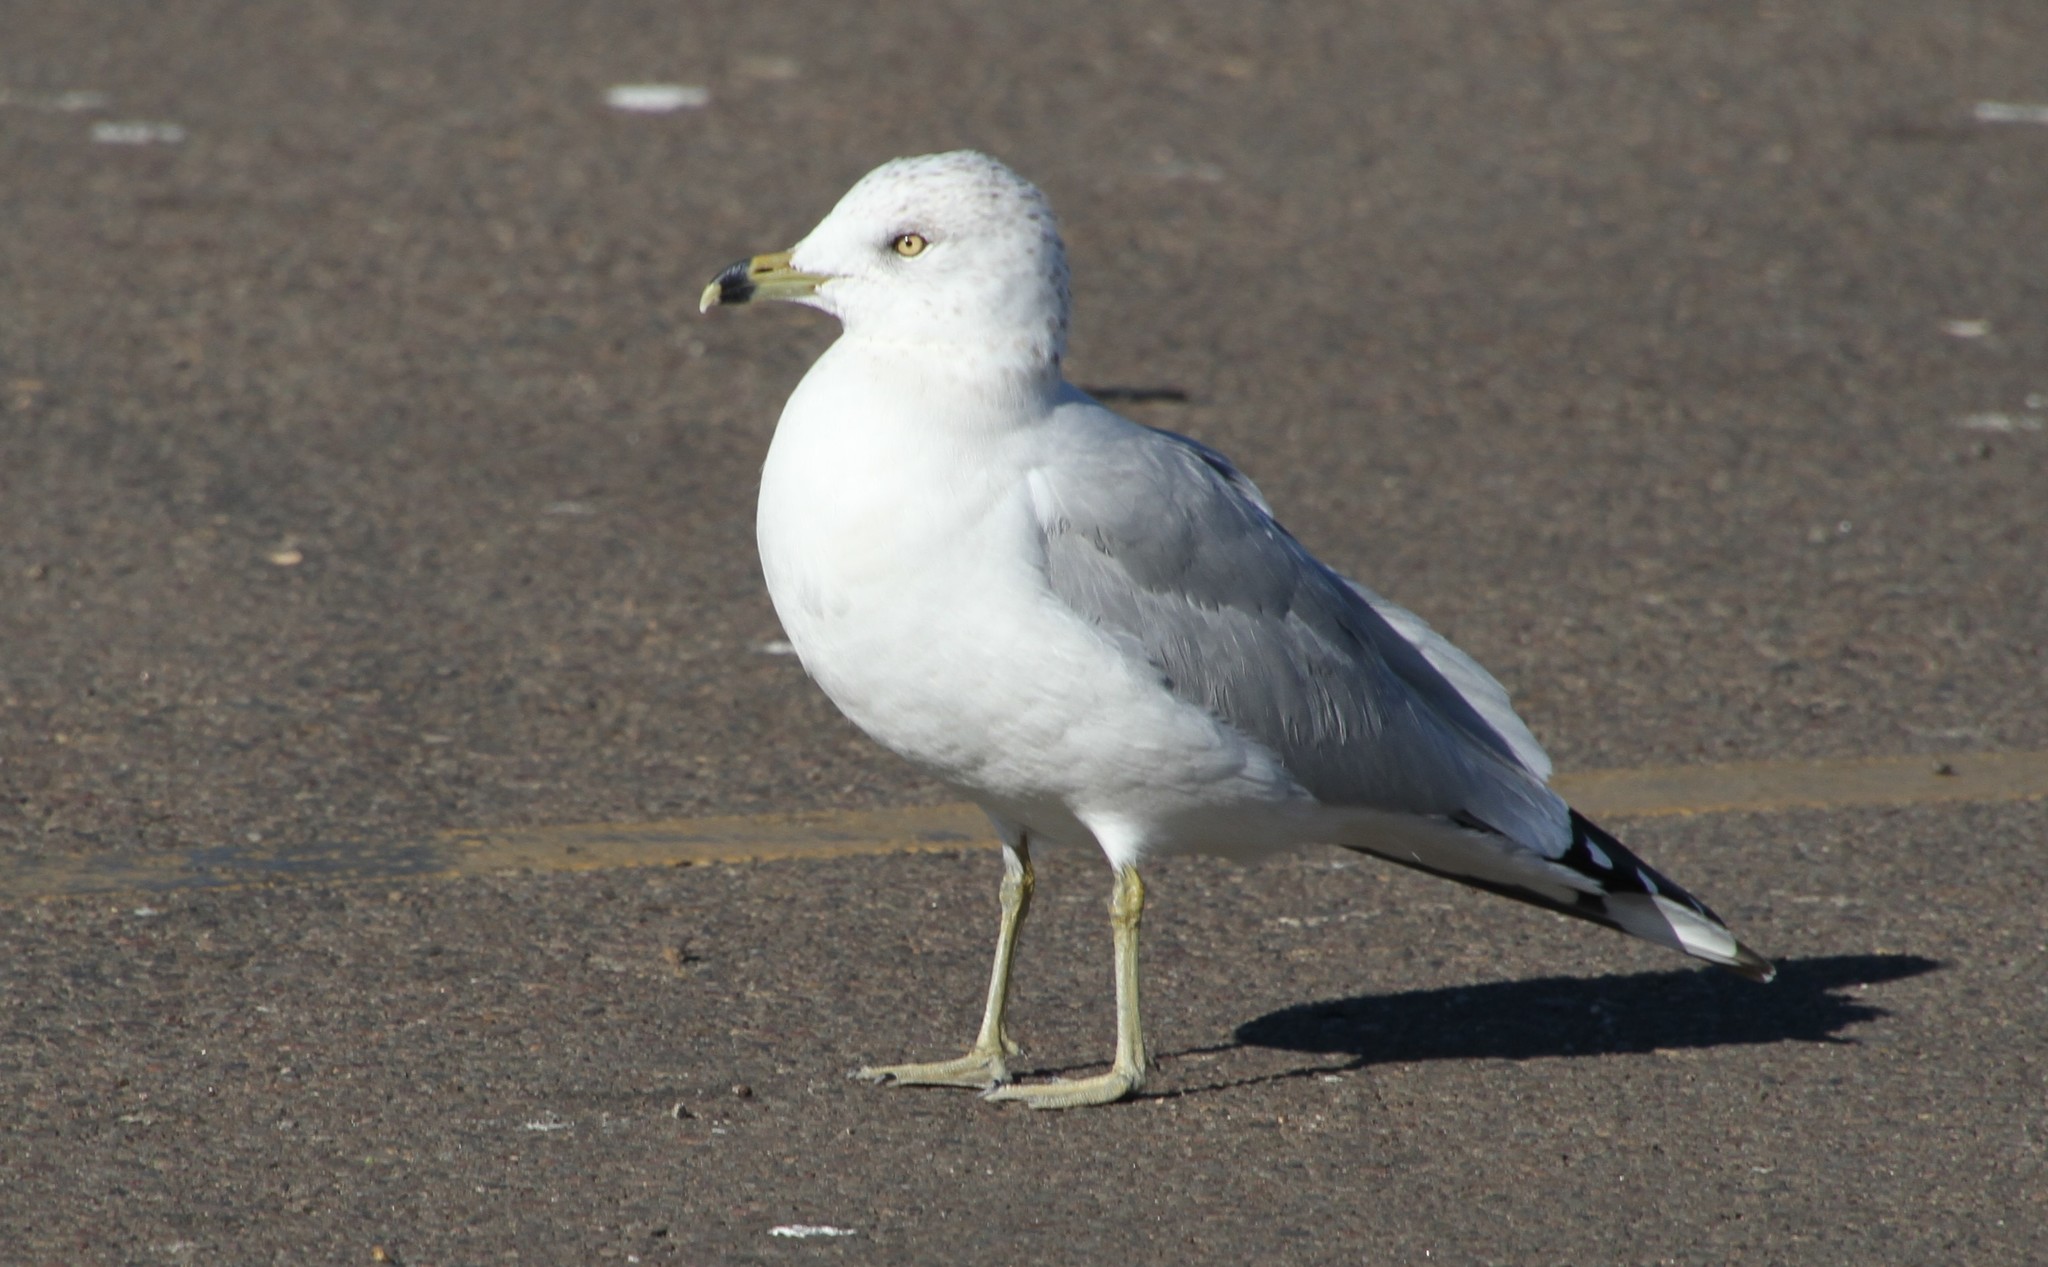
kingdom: Animalia
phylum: Chordata
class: Aves
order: Charadriiformes
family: Laridae
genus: Larus
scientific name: Larus delawarensis
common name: Ring-billed gull
